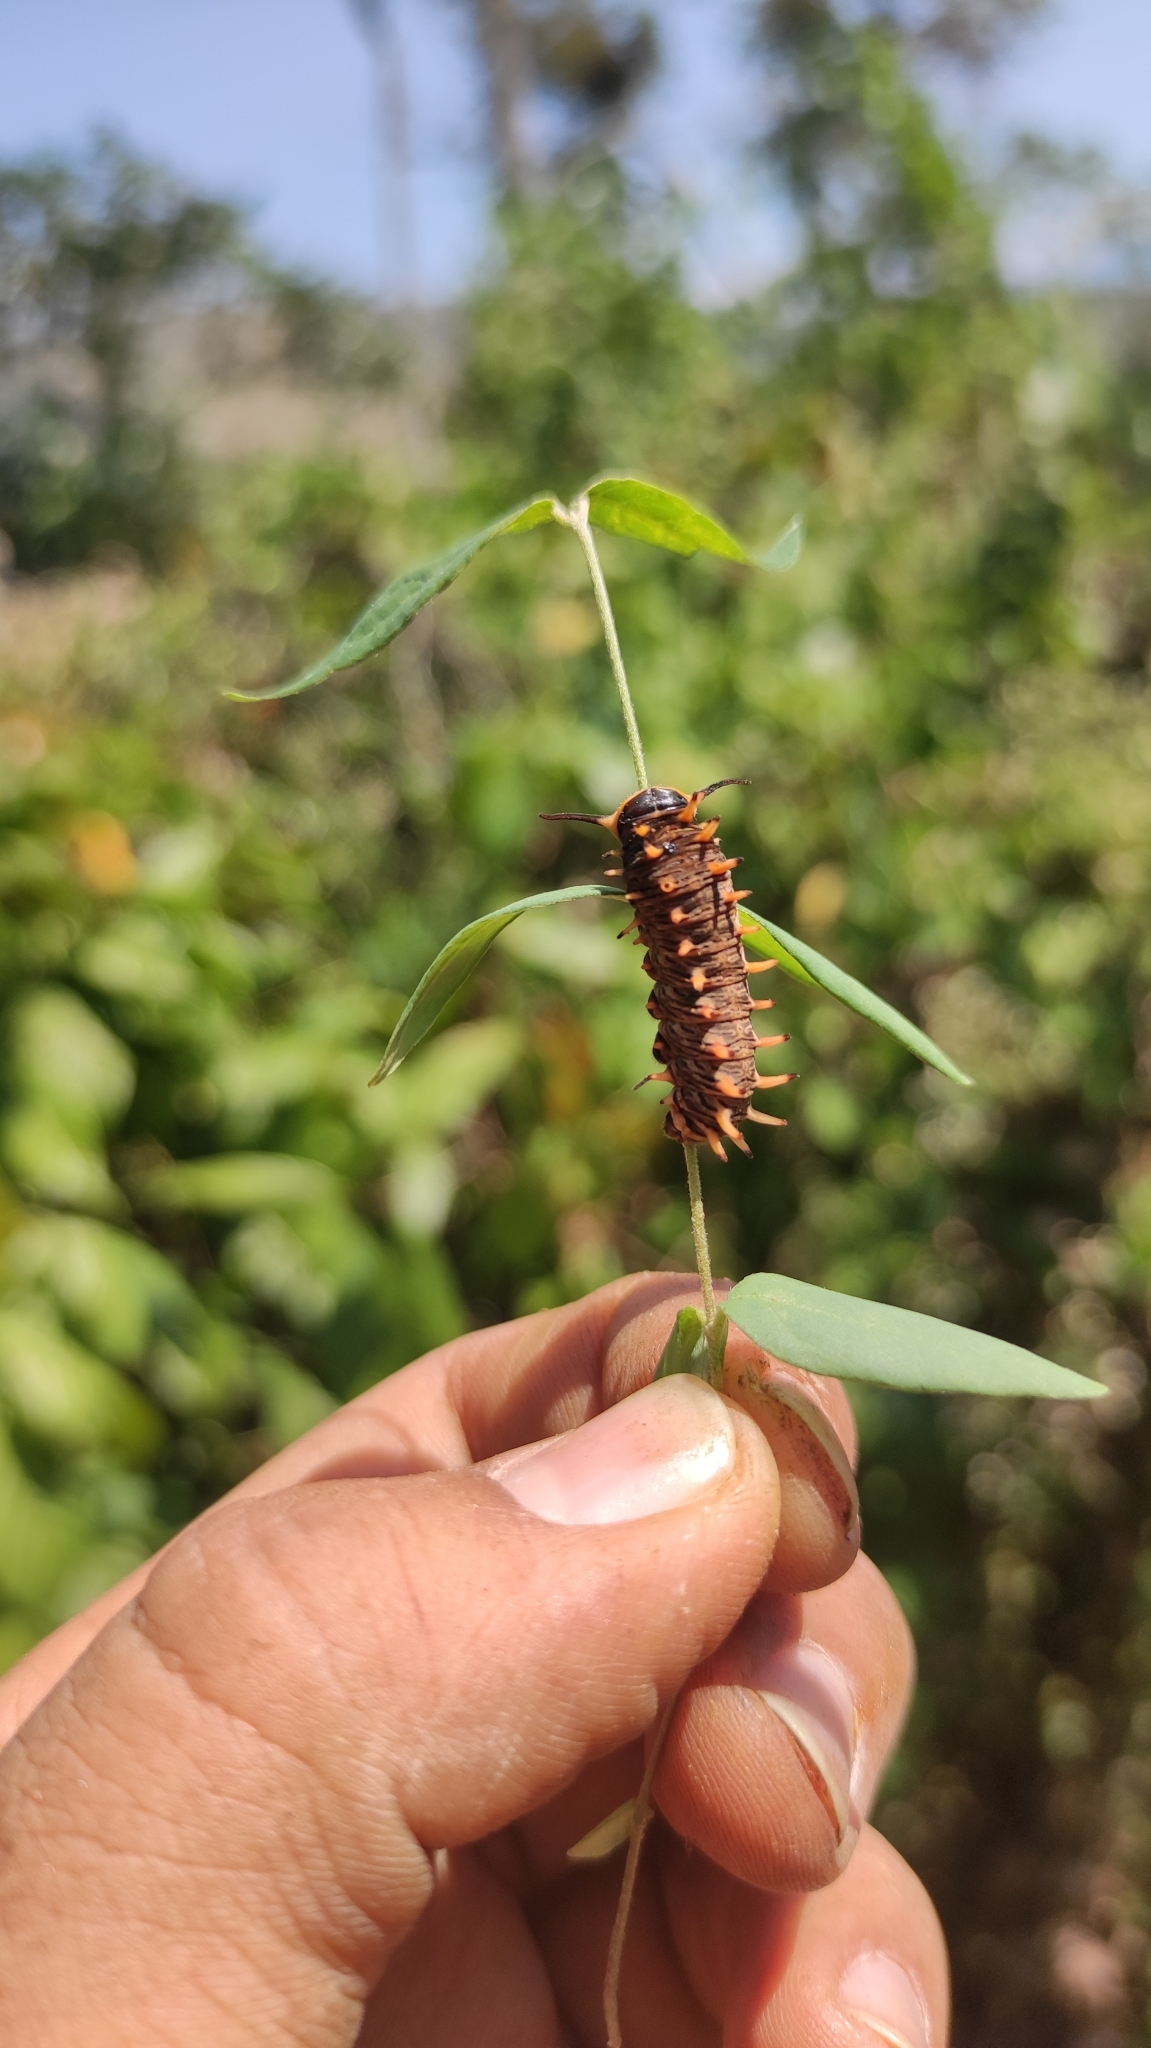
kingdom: Animalia
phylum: Arthropoda
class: Insecta
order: Lepidoptera
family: Papilionidae
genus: Battus
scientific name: Battus polydamas
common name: Polydamas swallowtail
